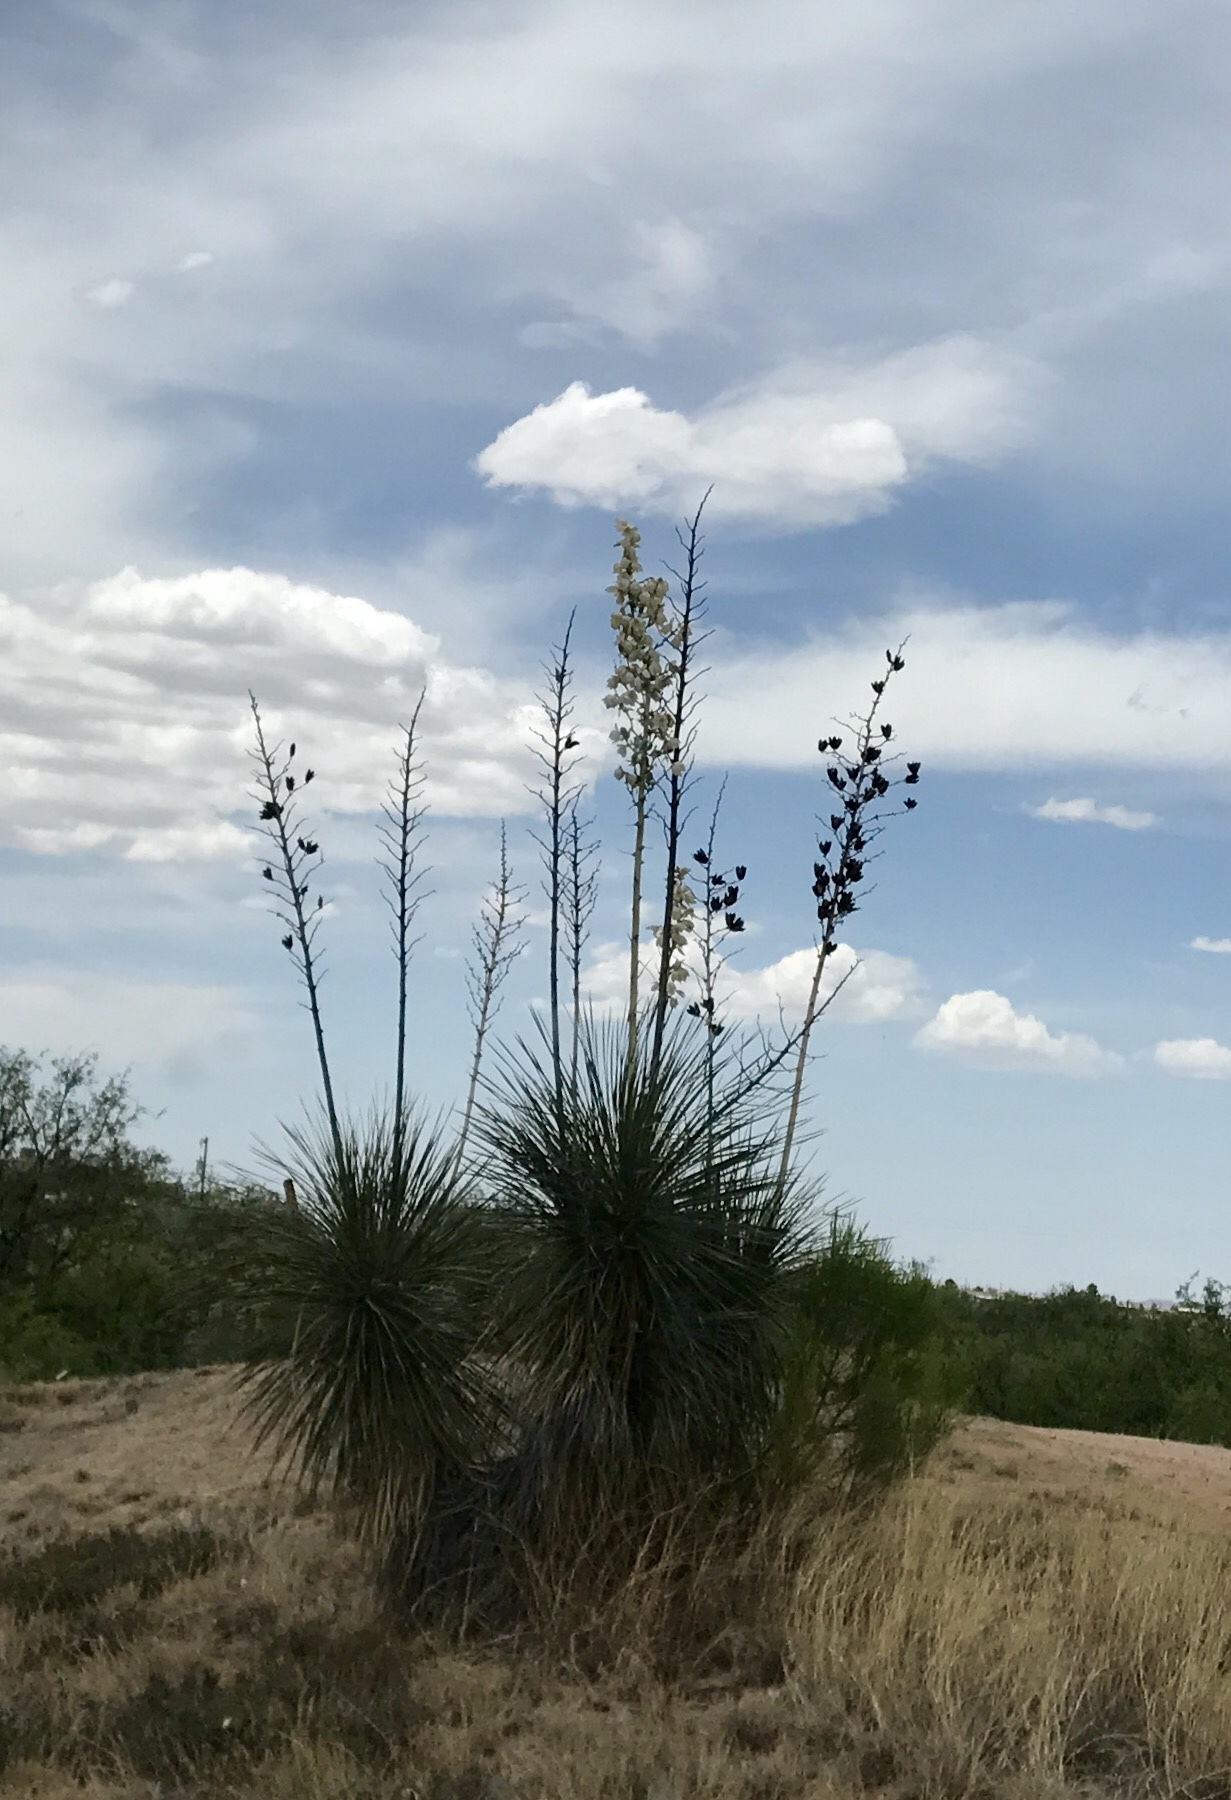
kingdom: Plantae
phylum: Tracheophyta
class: Liliopsida
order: Asparagales
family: Asparagaceae
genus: Yucca
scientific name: Yucca elata
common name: Palmella
